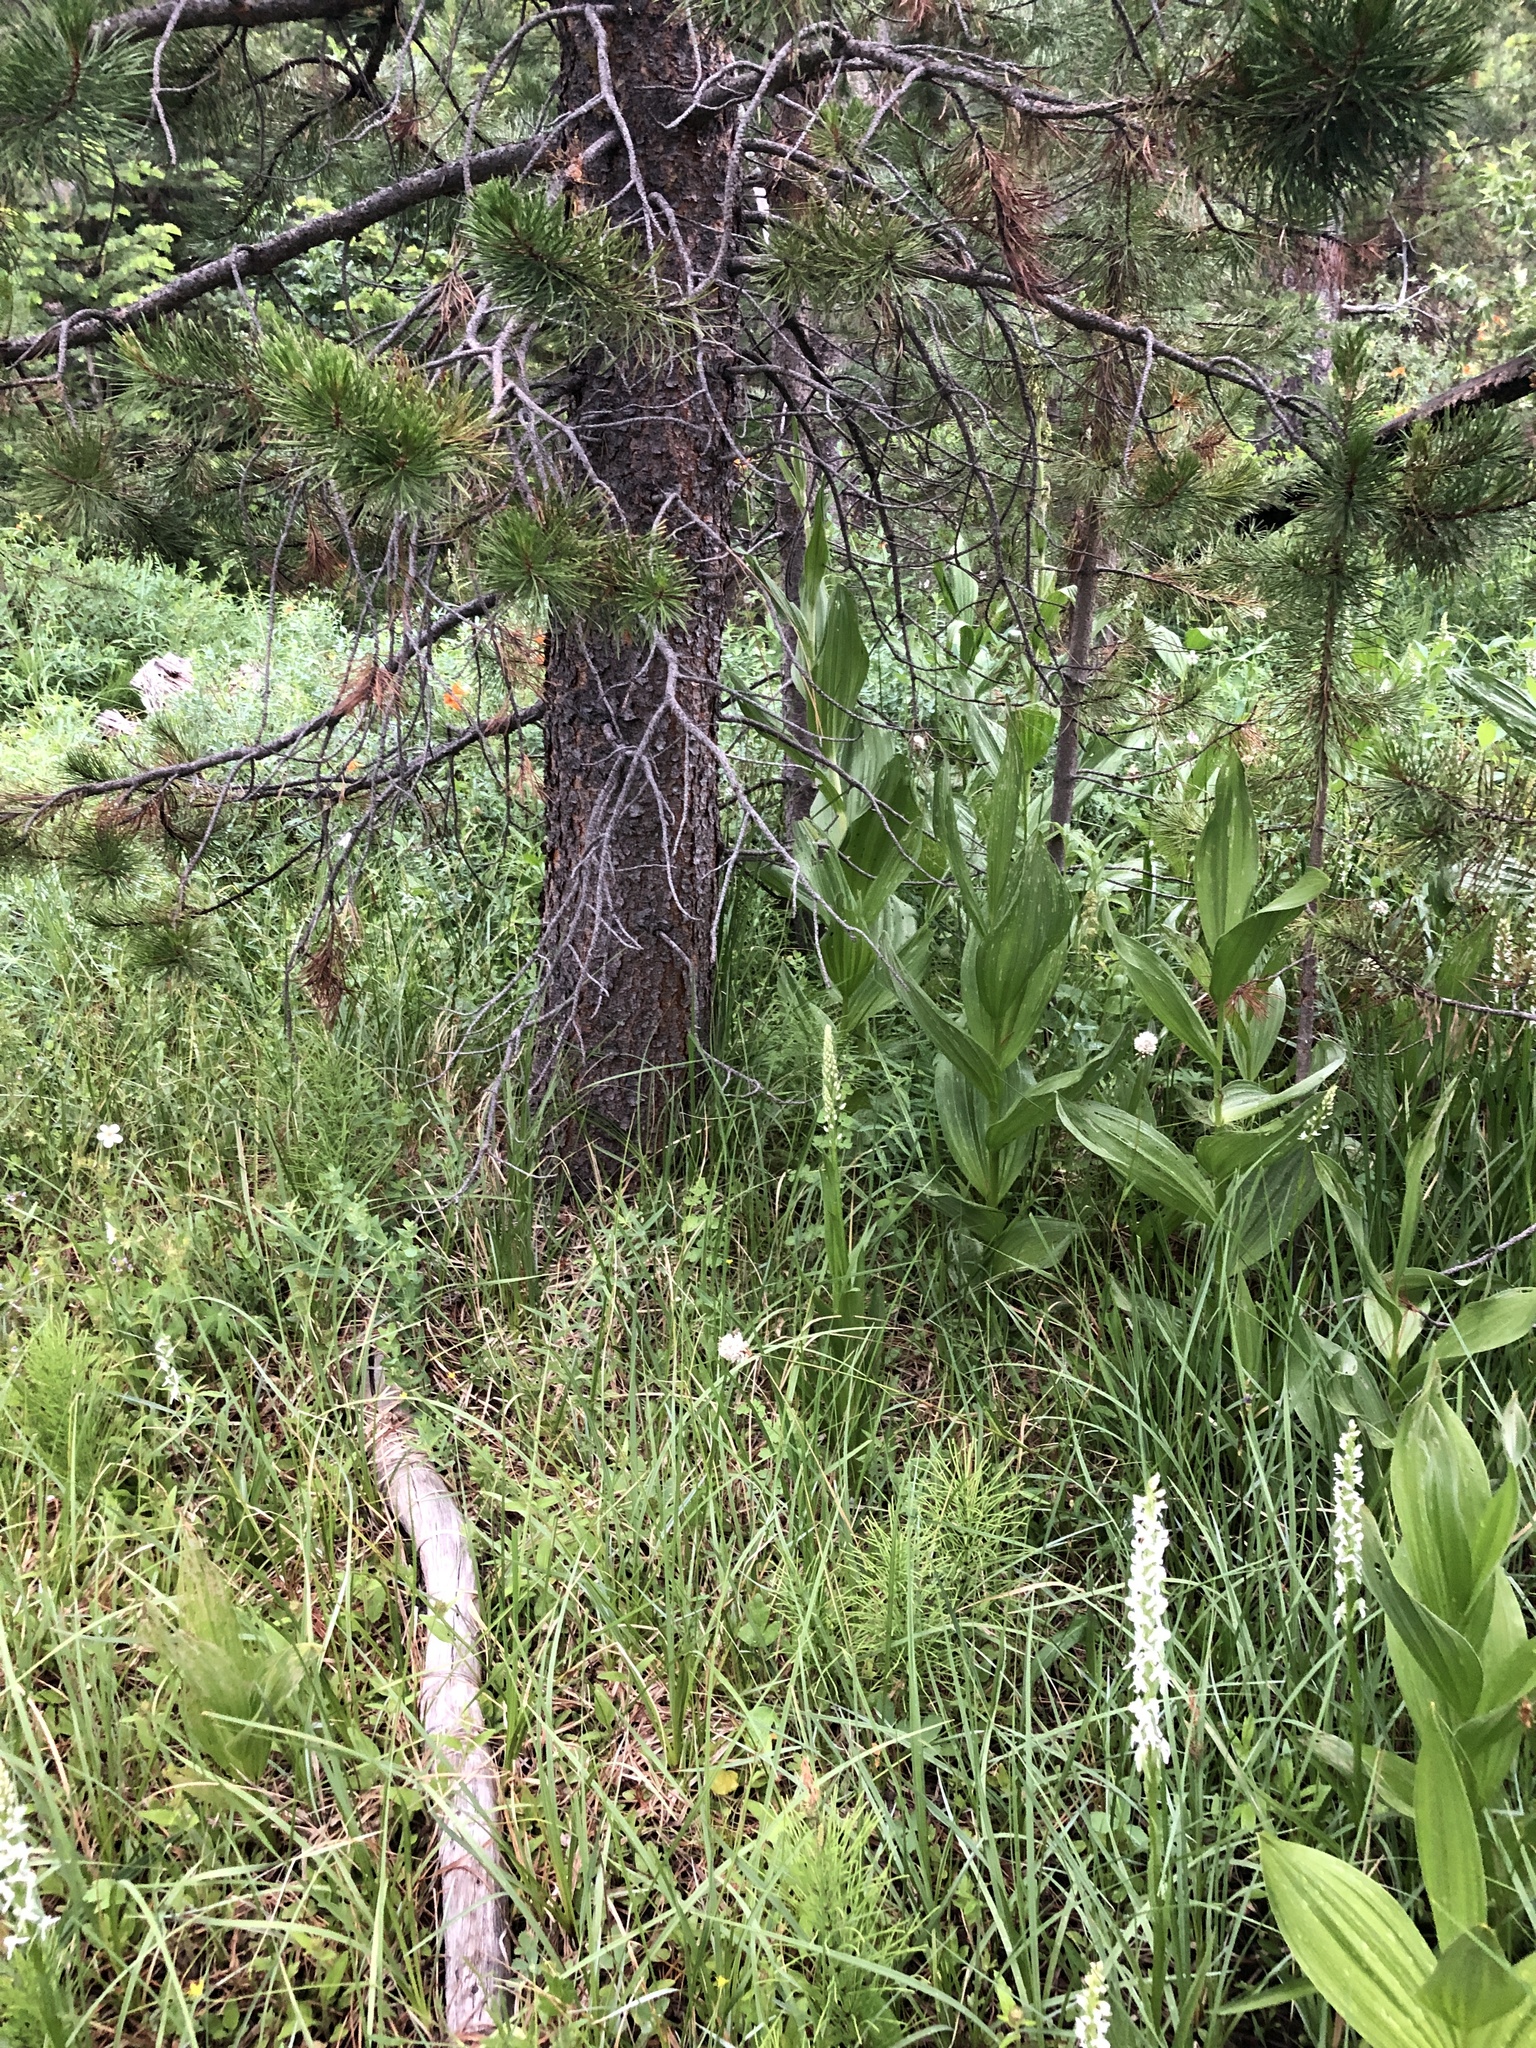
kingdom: Plantae
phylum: Tracheophyta
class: Liliopsida
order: Asparagales
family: Orchidaceae
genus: Platanthera
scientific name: Platanthera dilatata
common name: Bog candles
